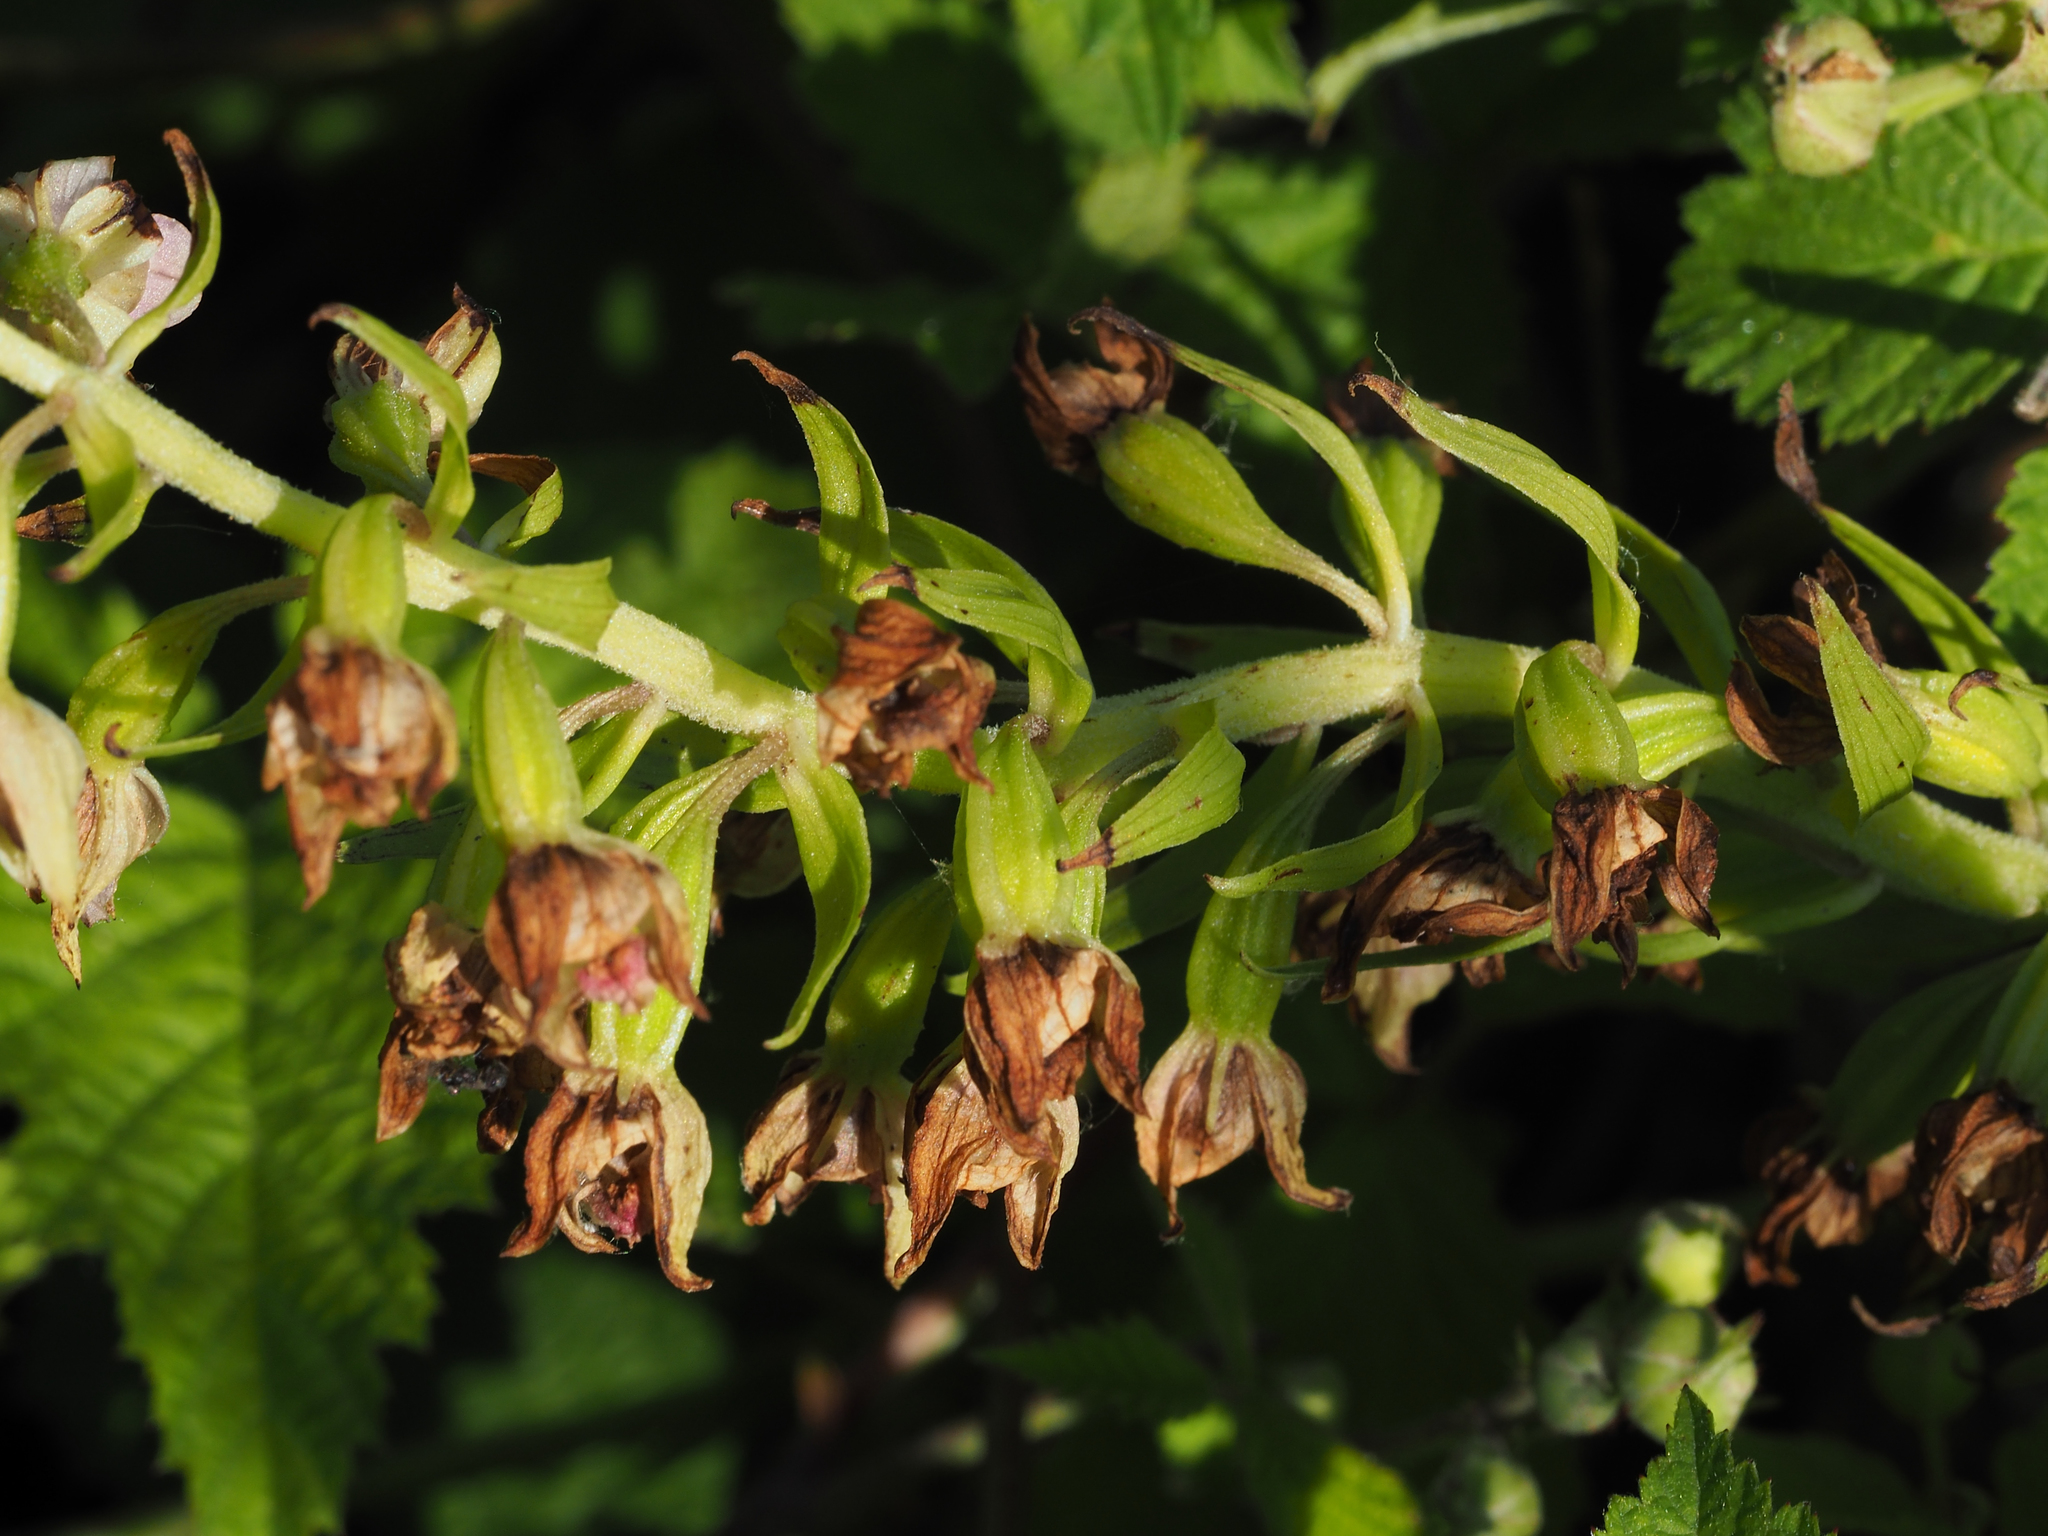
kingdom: Plantae
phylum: Tracheophyta
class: Liliopsida
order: Asparagales
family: Orchidaceae
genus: Epipactis
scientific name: Epipactis bugacensis
